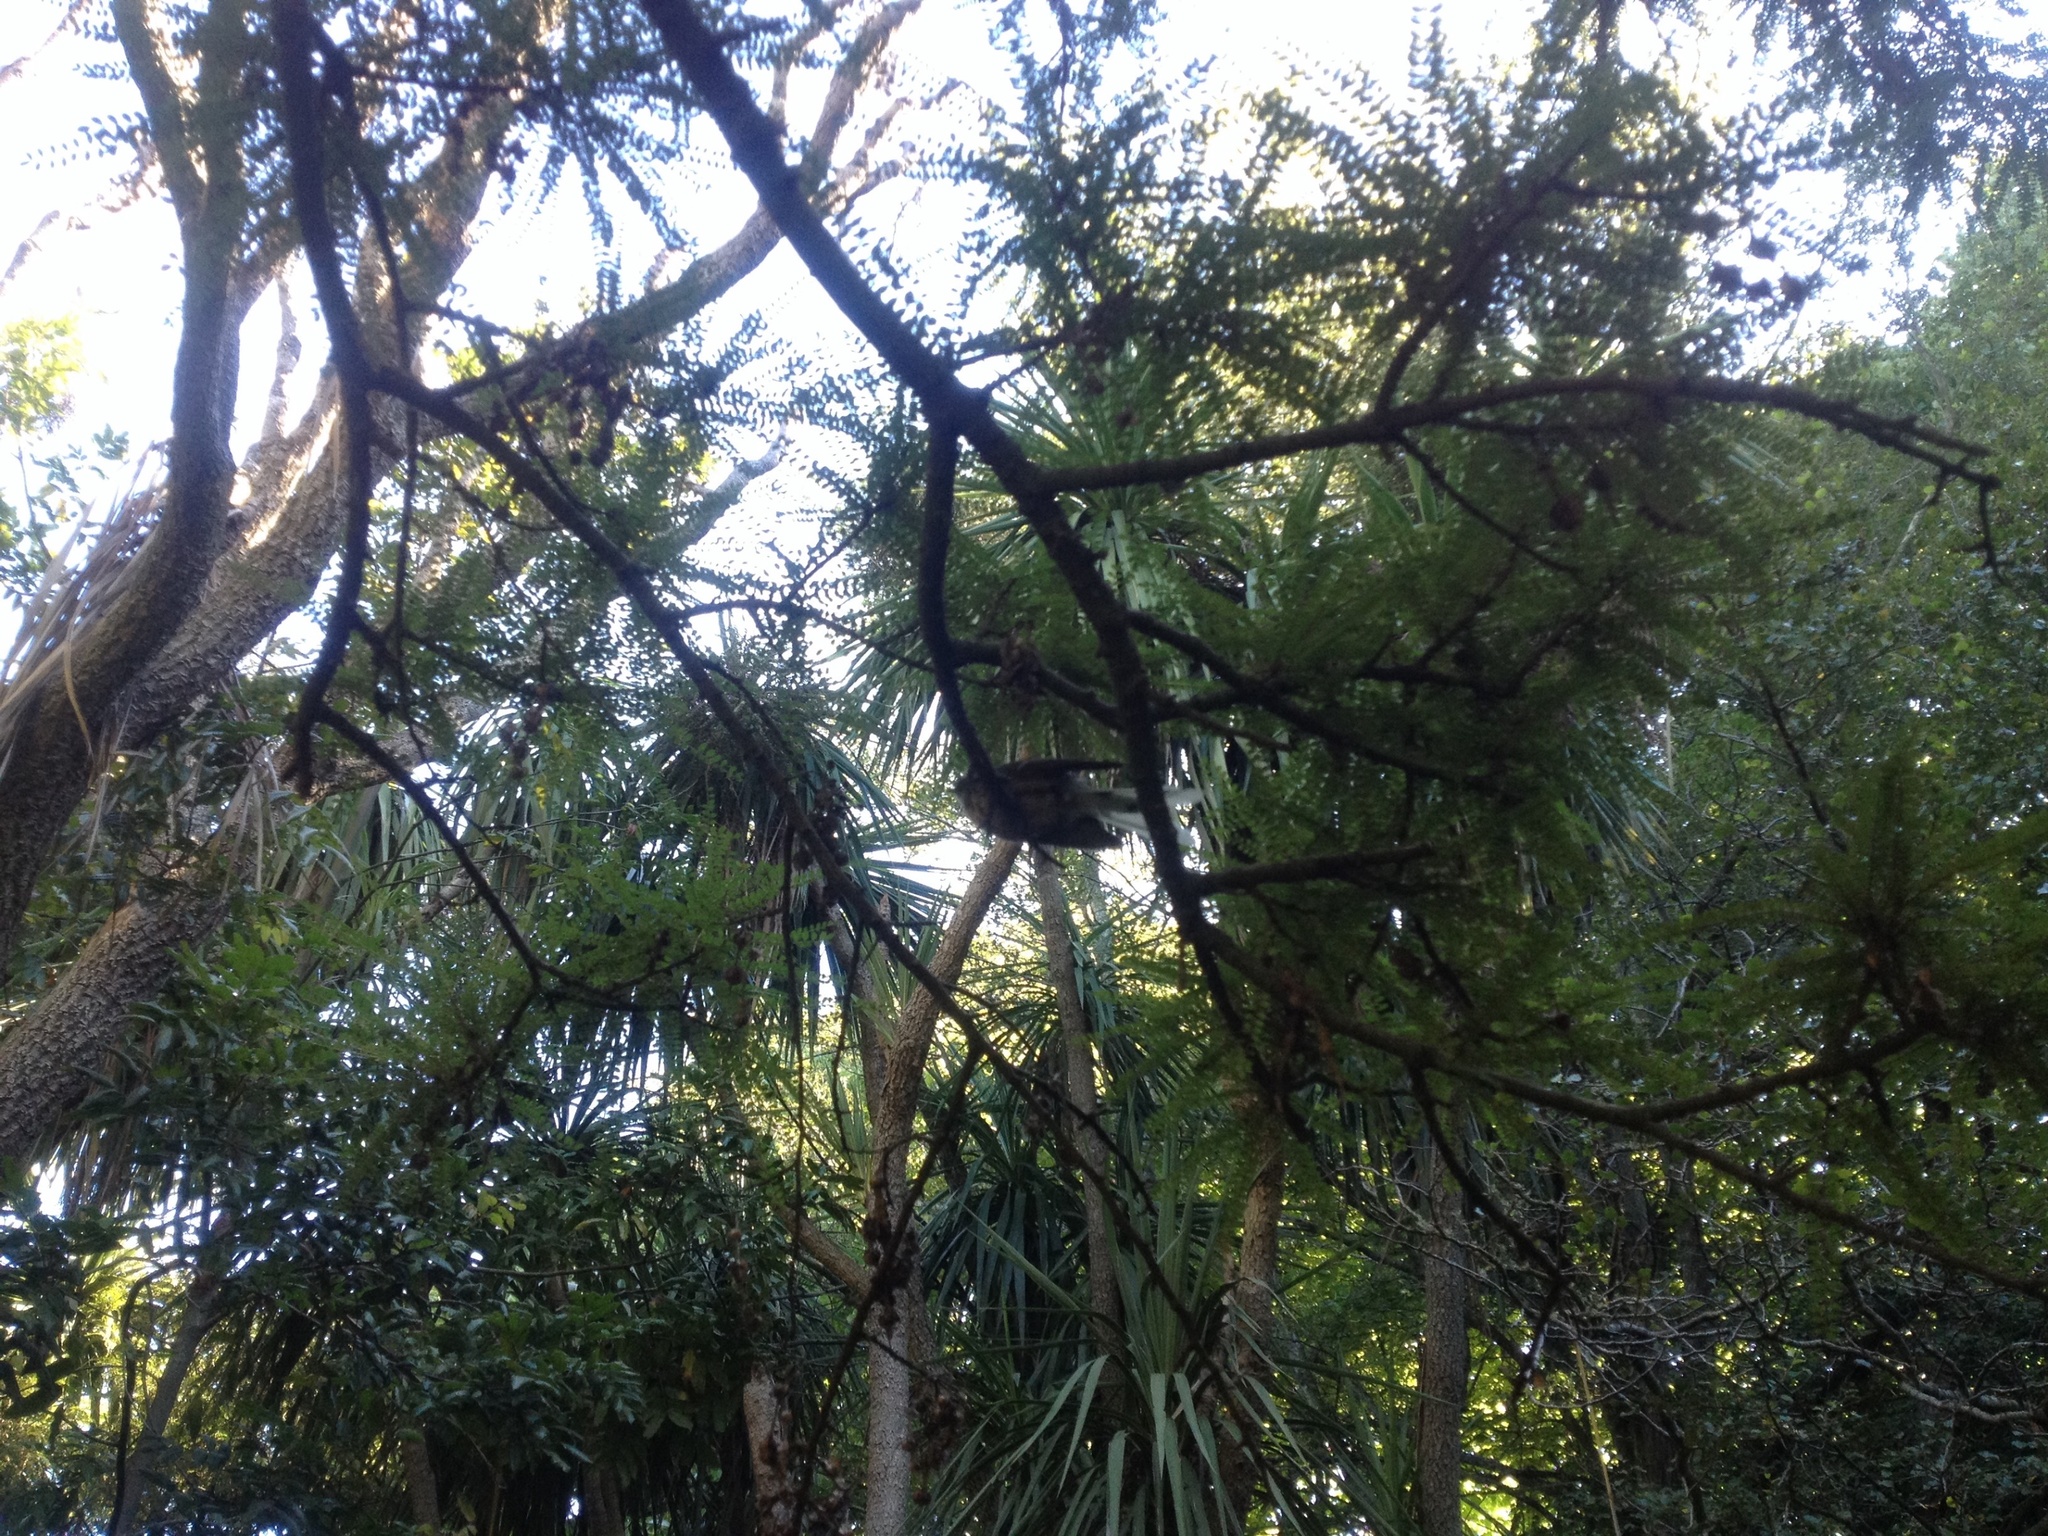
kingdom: Animalia
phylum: Chordata
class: Aves
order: Passeriformes
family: Rhipiduridae
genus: Rhipidura
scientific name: Rhipidura fuliginosa
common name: New zealand fantail
